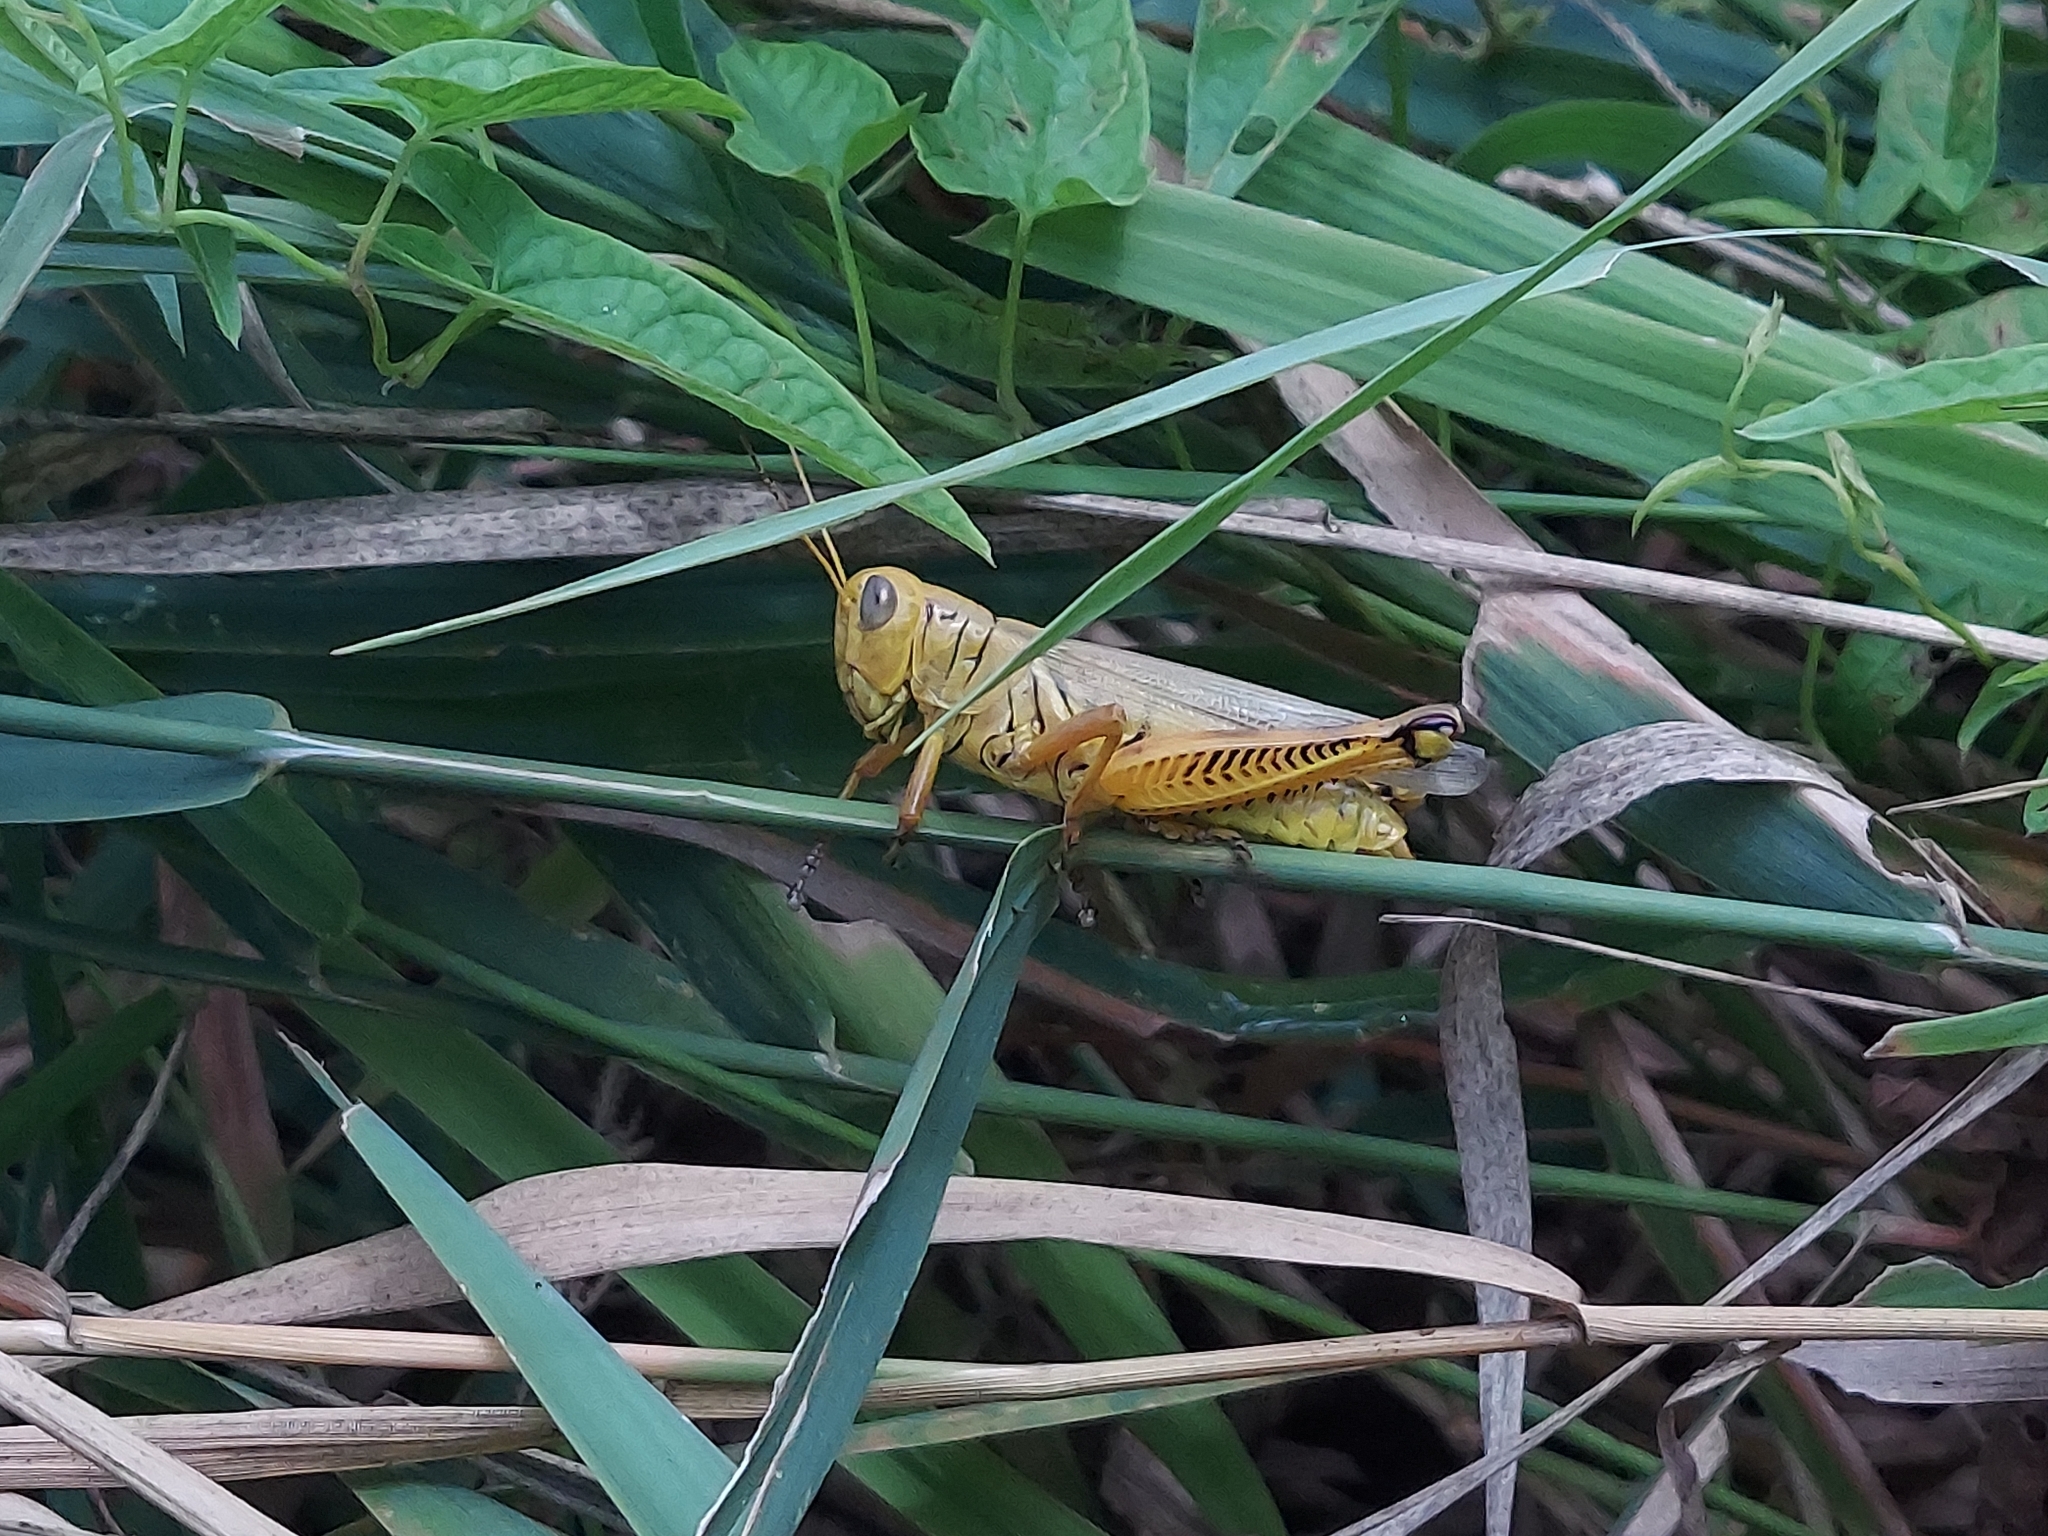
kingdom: Animalia
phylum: Arthropoda
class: Insecta
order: Orthoptera
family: Acrididae
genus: Melanoplus
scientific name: Melanoplus differentialis
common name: Differential grasshopper
